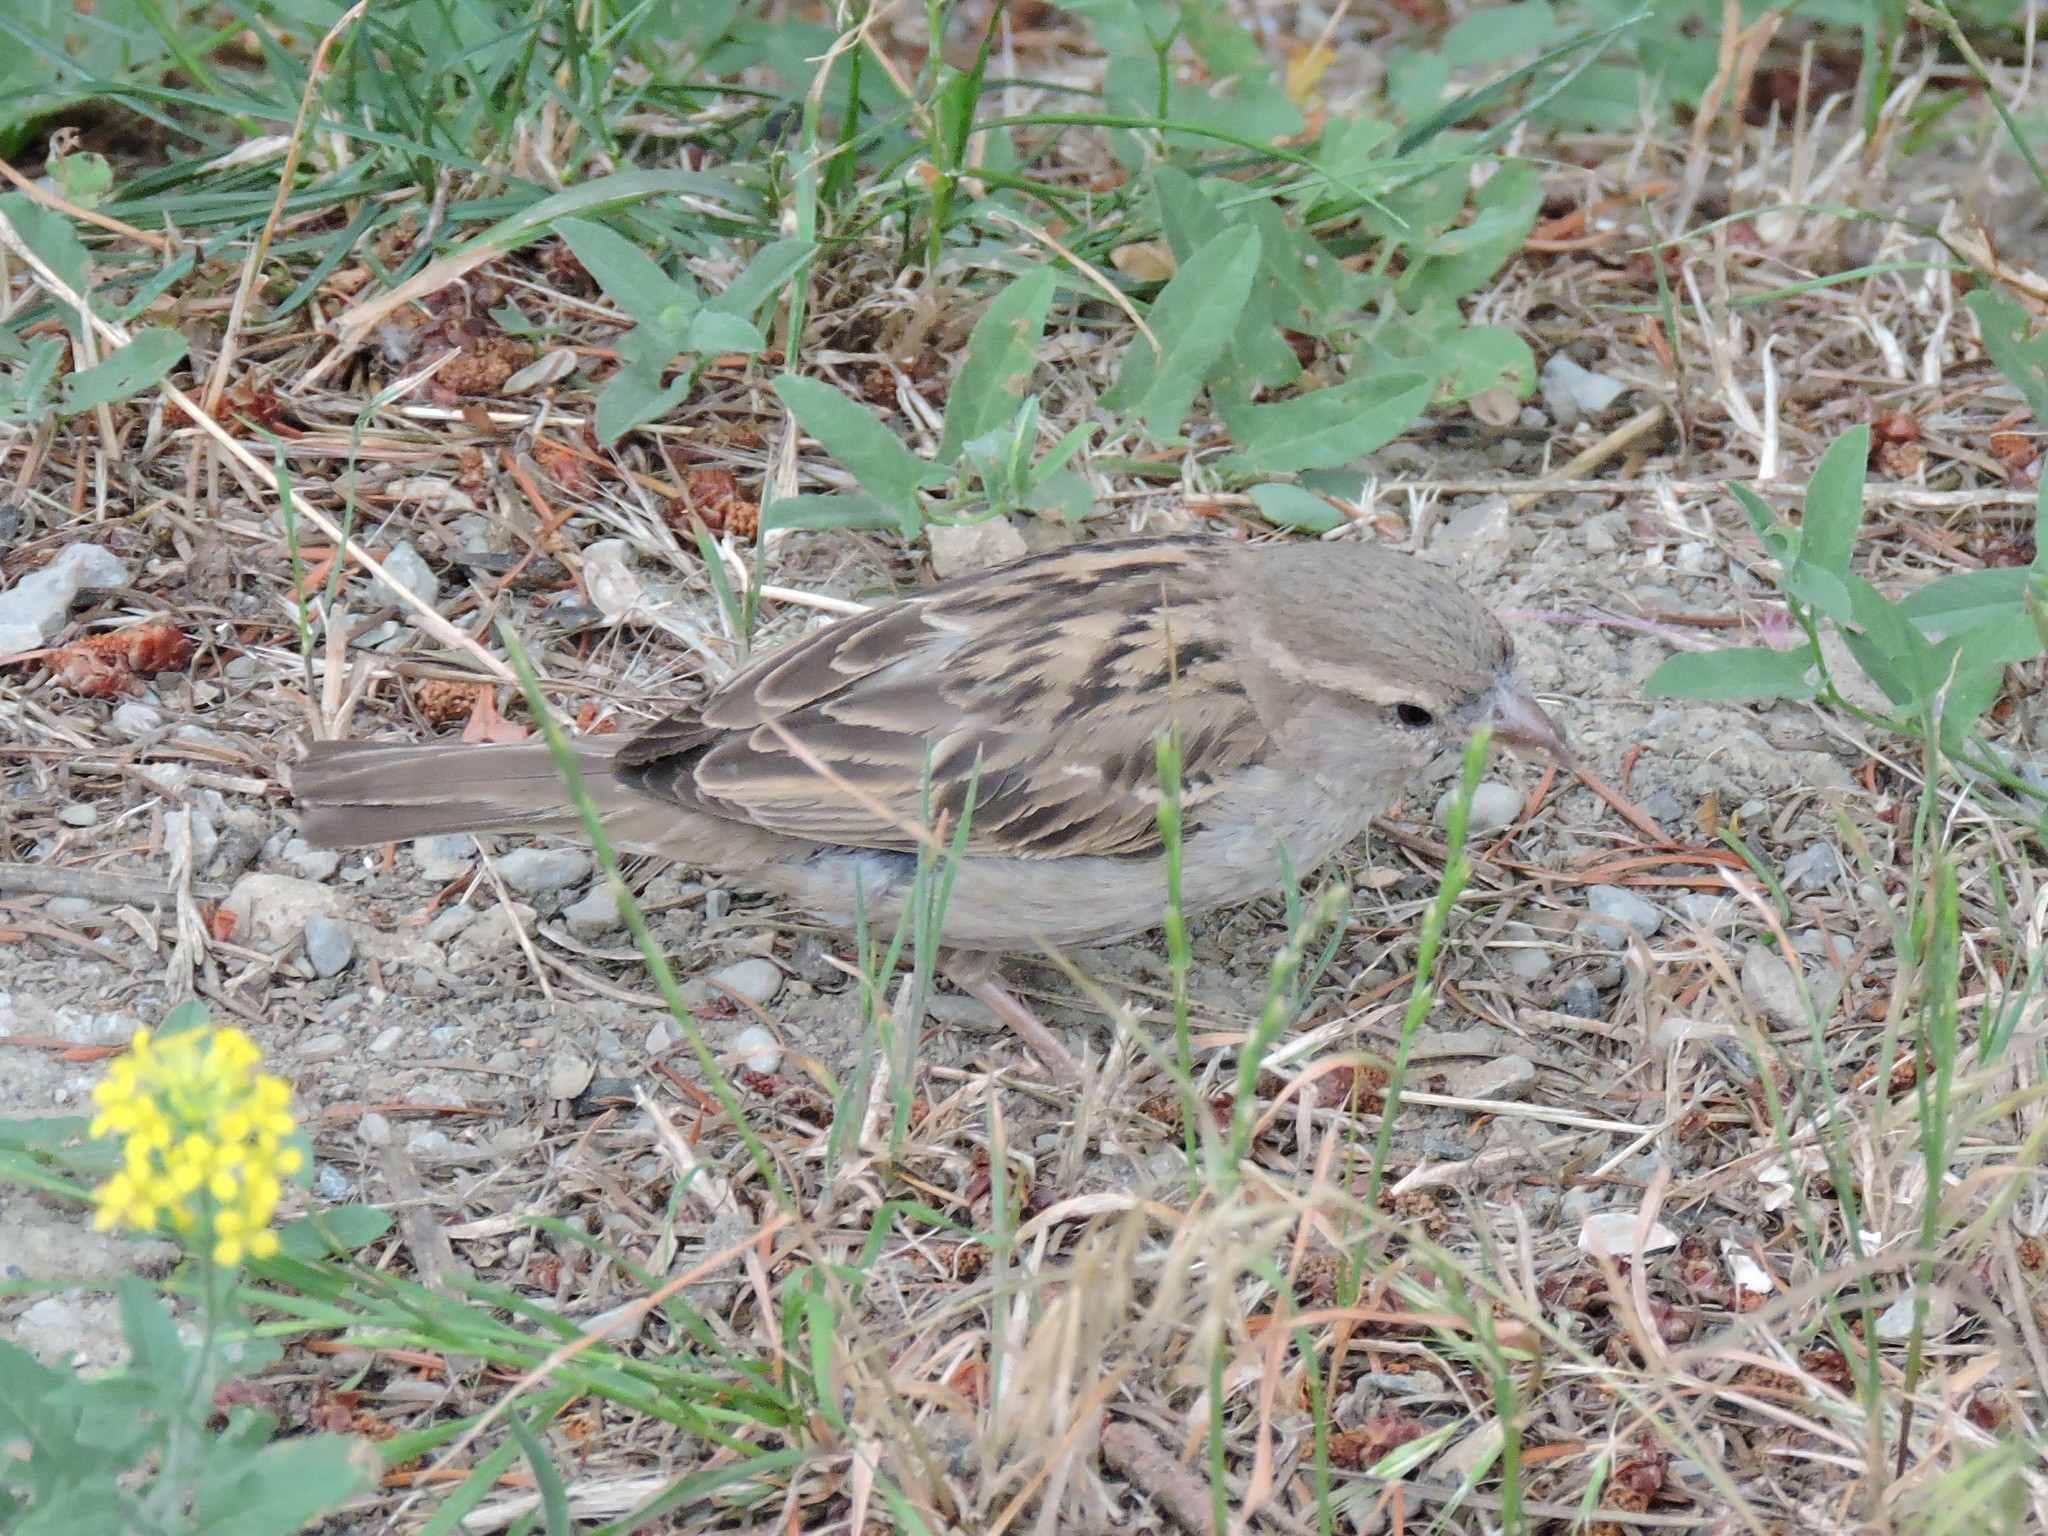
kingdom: Animalia
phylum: Chordata
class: Aves
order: Passeriformes
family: Passeridae
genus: Passer
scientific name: Passer domesticus
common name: House sparrow
